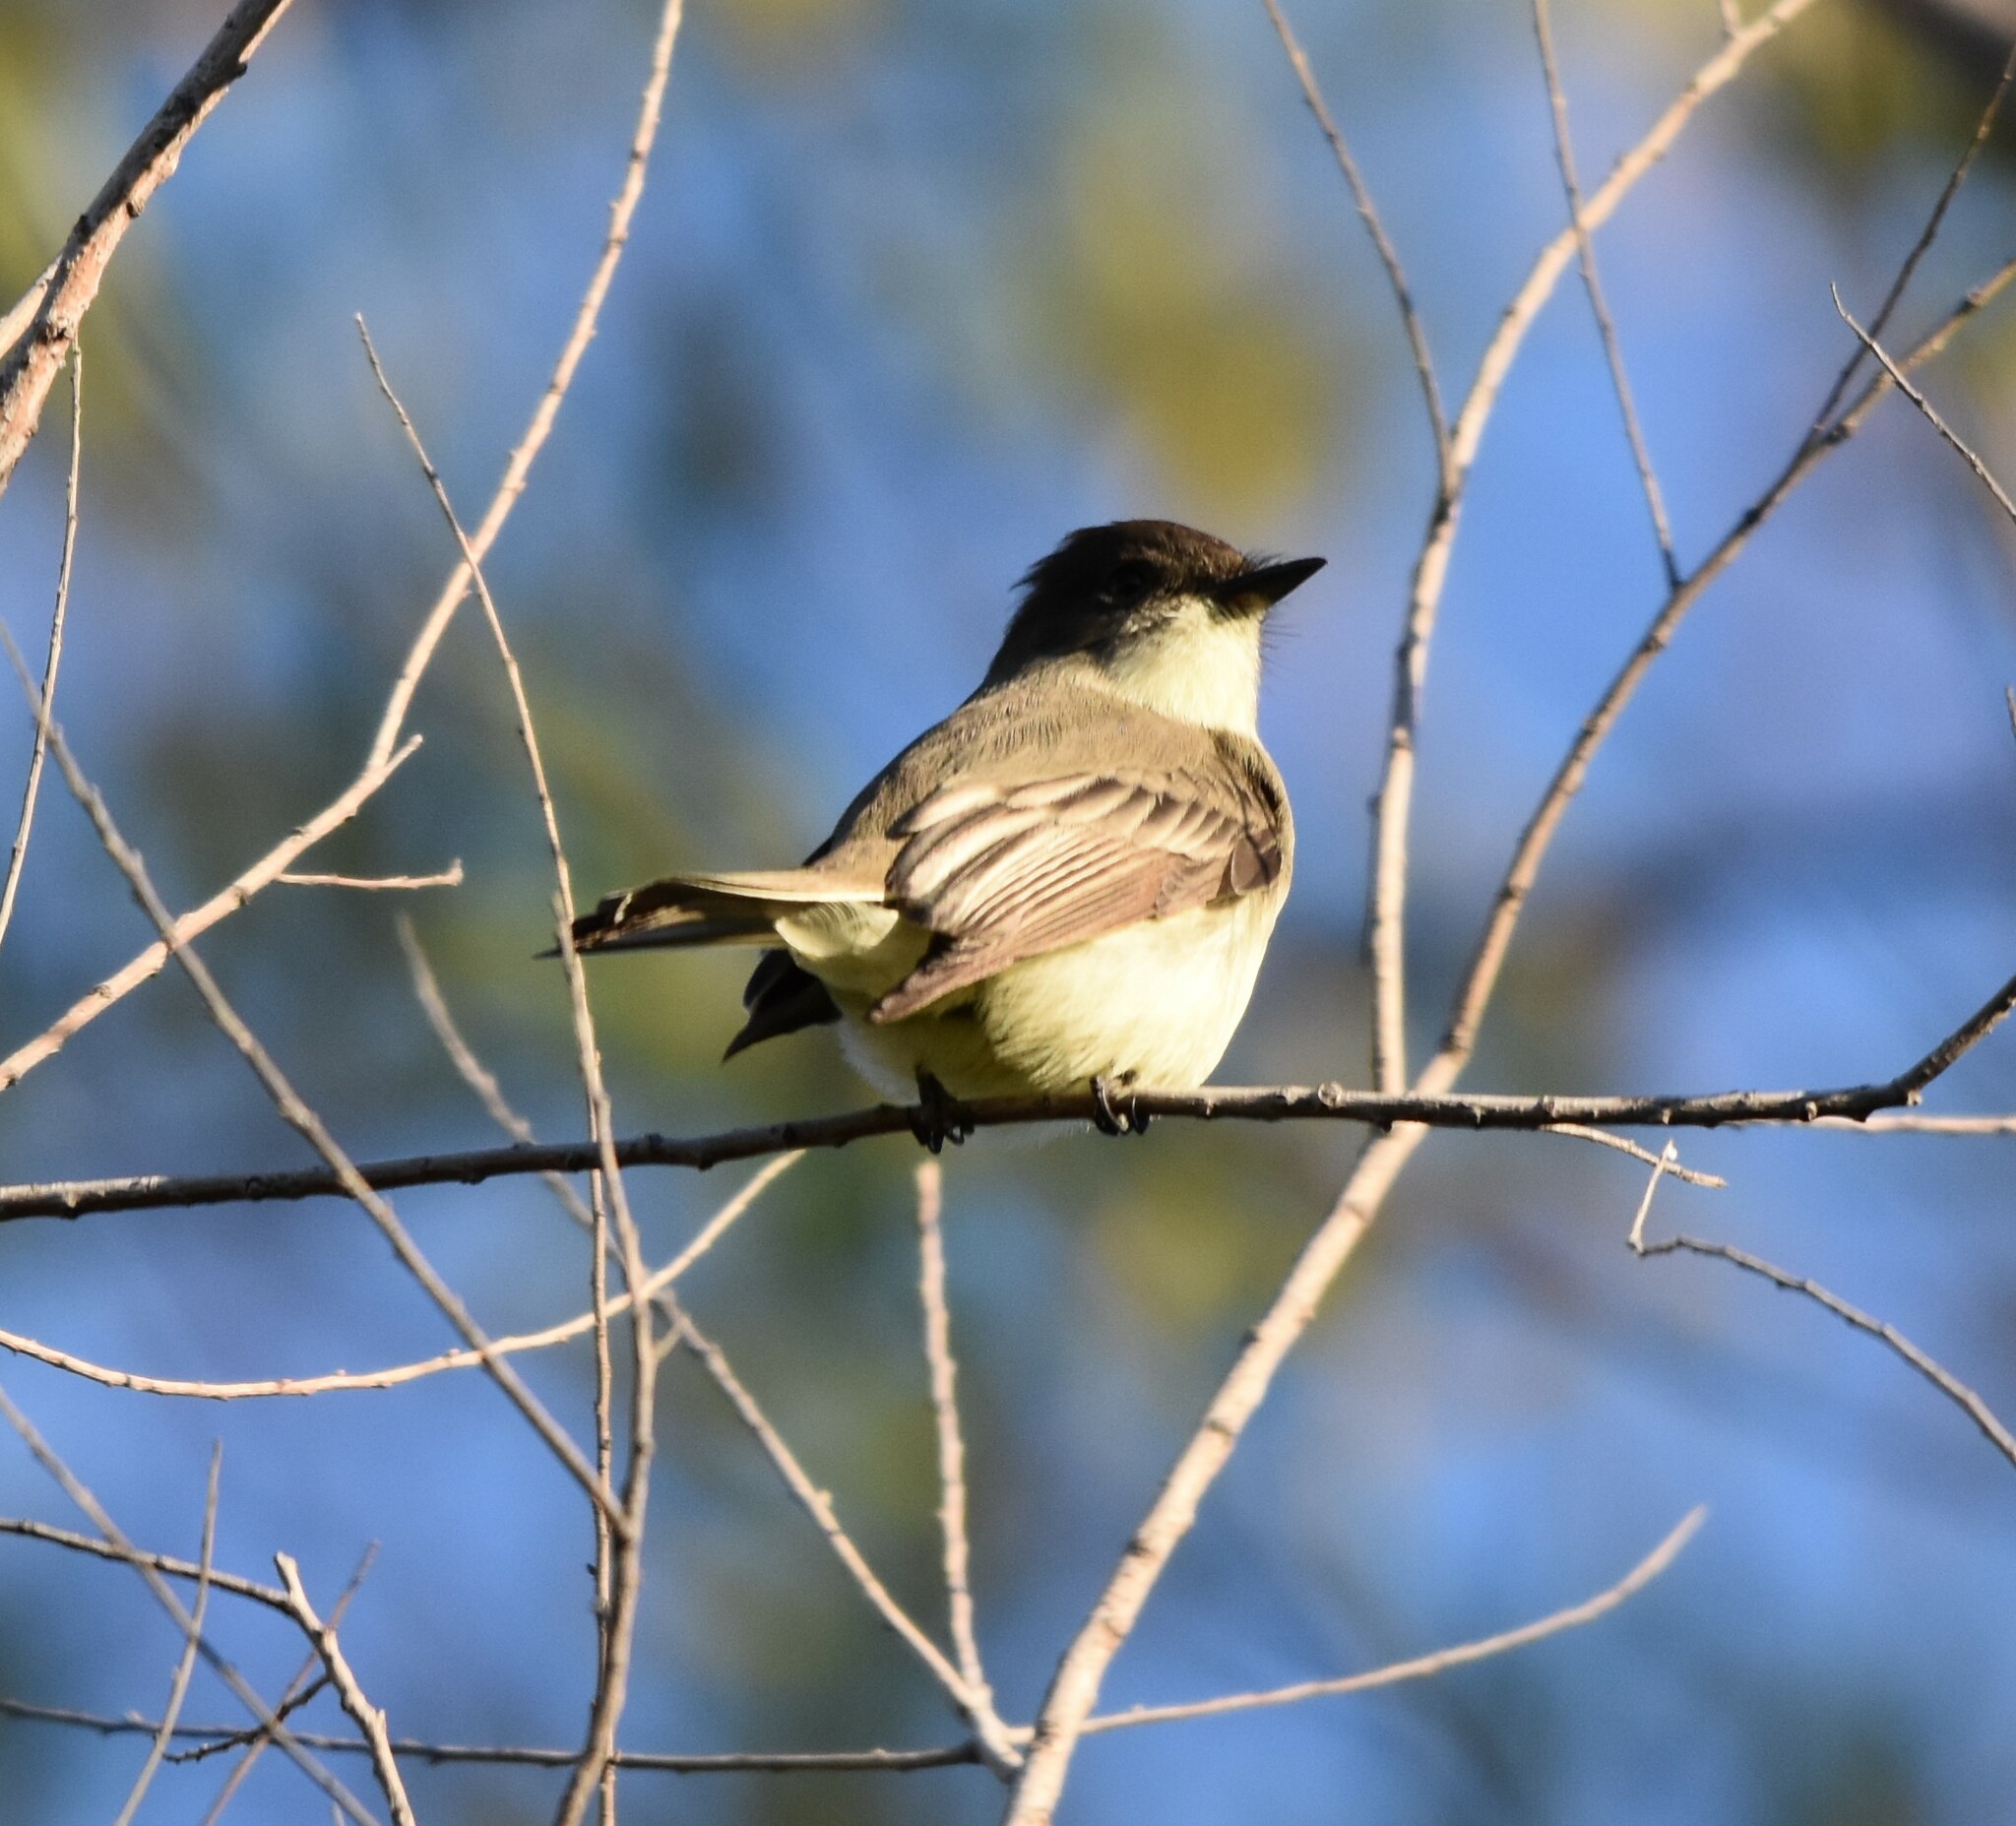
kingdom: Animalia
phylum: Chordata
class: Aves
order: Passeriformes
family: Tyrannidae
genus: Sayornis
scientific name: Sayornis phoebe
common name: Eastern phoebe
